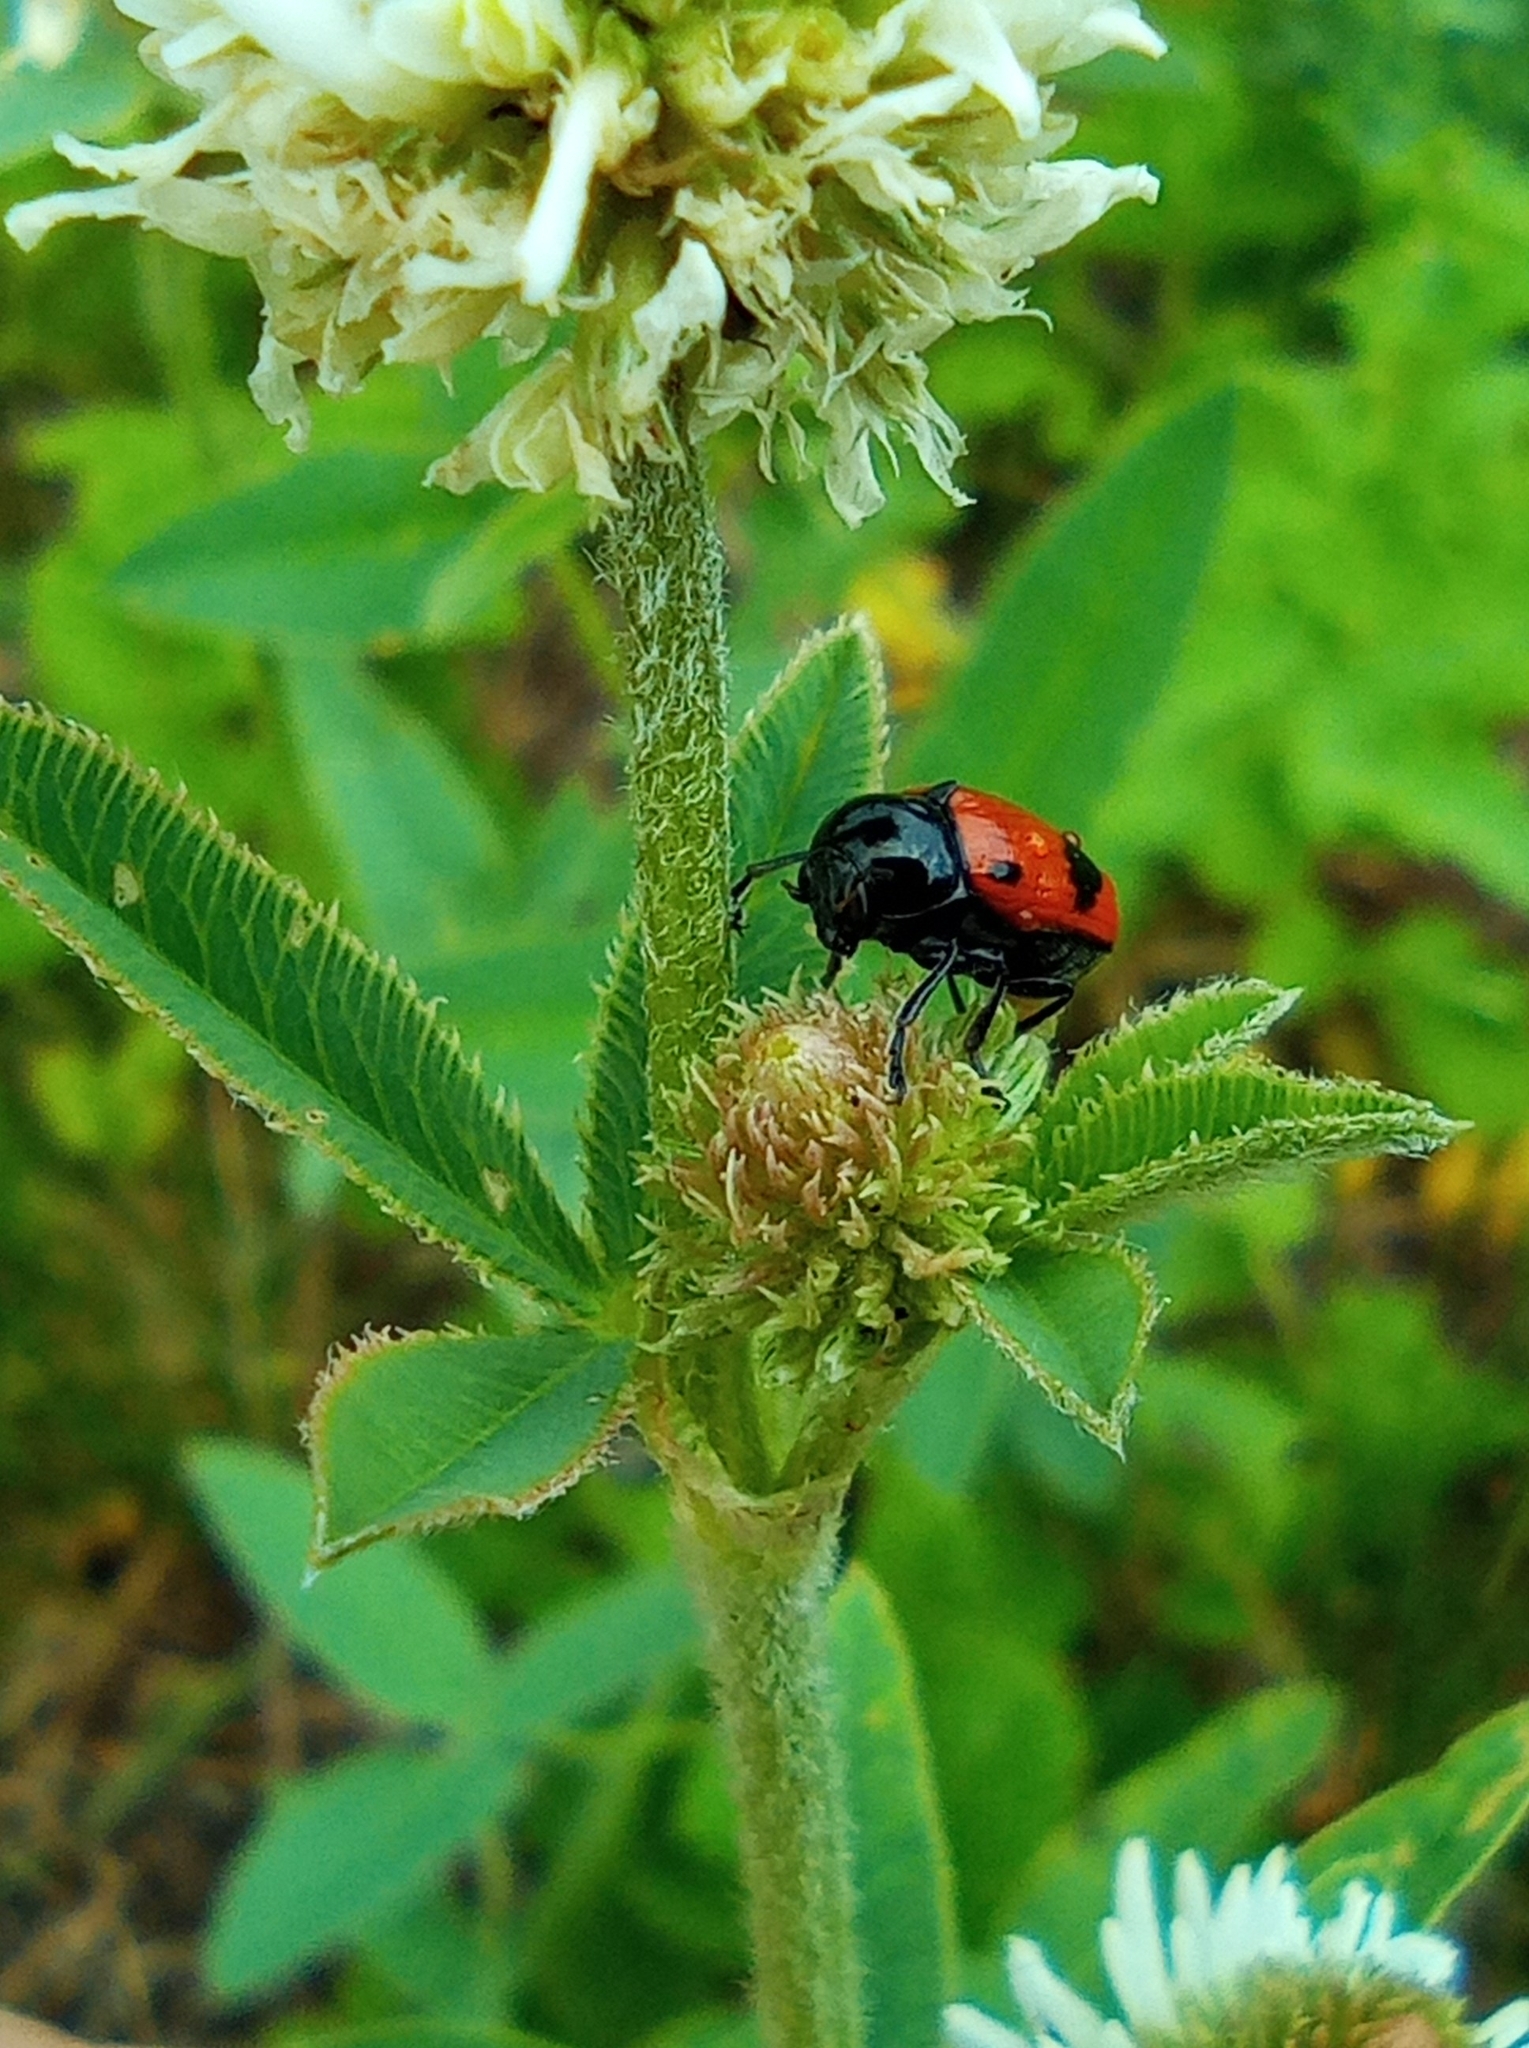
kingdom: Animalia
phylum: Arthropoda
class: Insecta
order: Coleoptera
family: Chrysomelidae
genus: Chiridopsis
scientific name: Chiridopsis bipunctata
